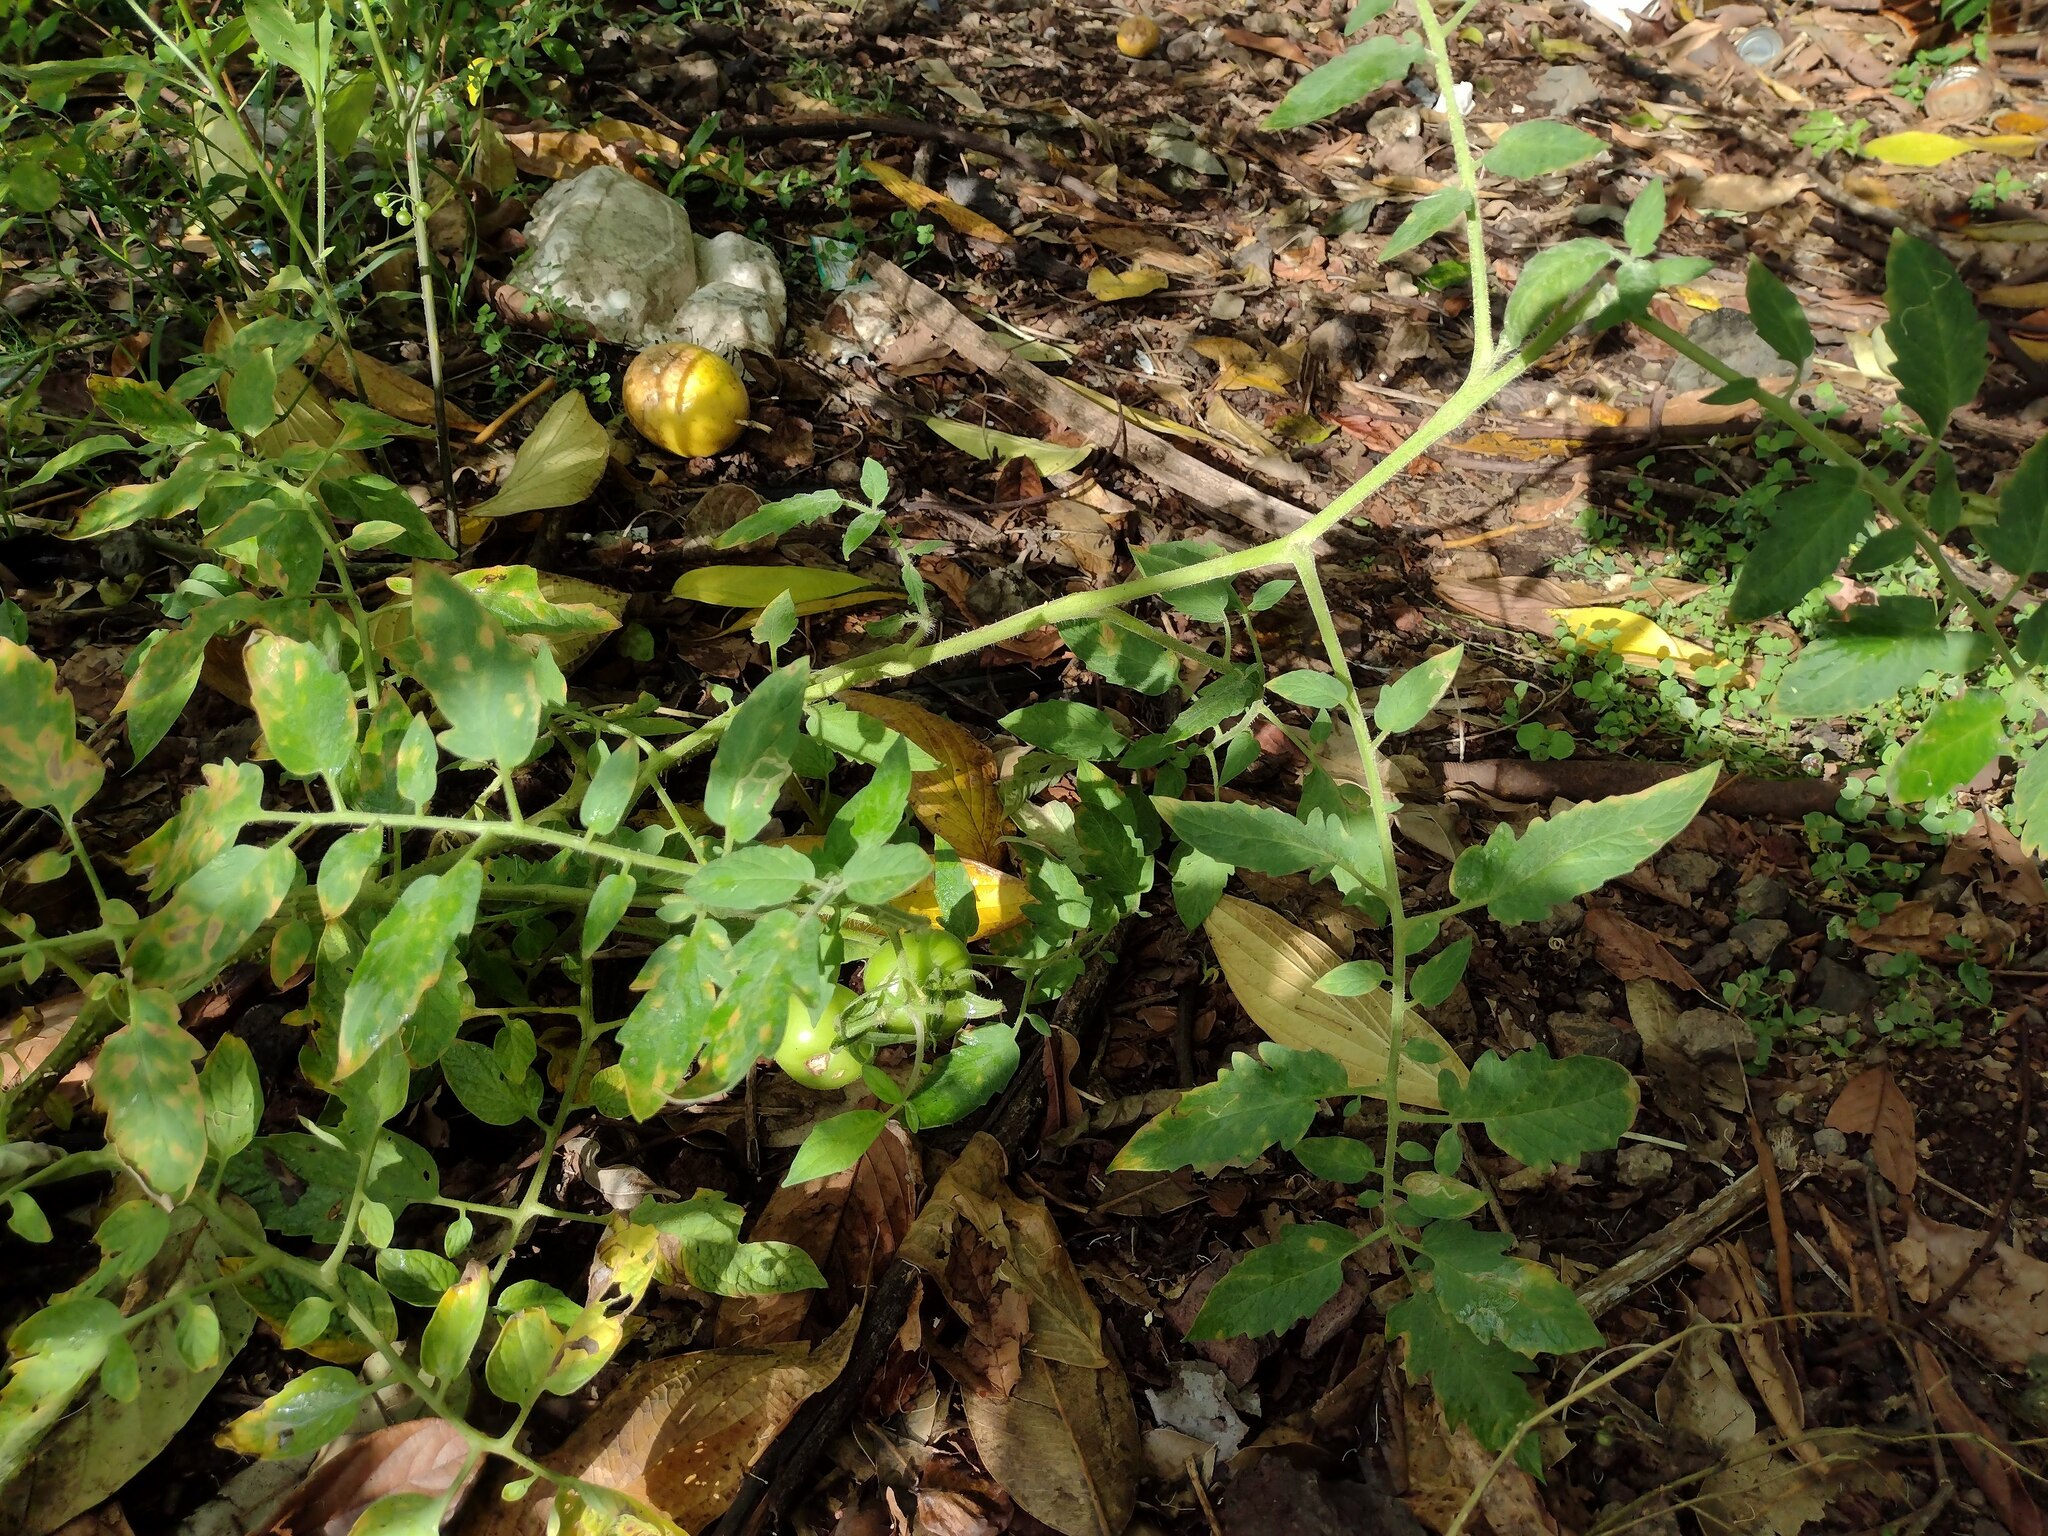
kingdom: Plantae
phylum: Tracheophyta
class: Magnoliopsida
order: Solanales
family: Solanaceae
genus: Solanum
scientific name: Solanum lycopersicum
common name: Garden tomato
